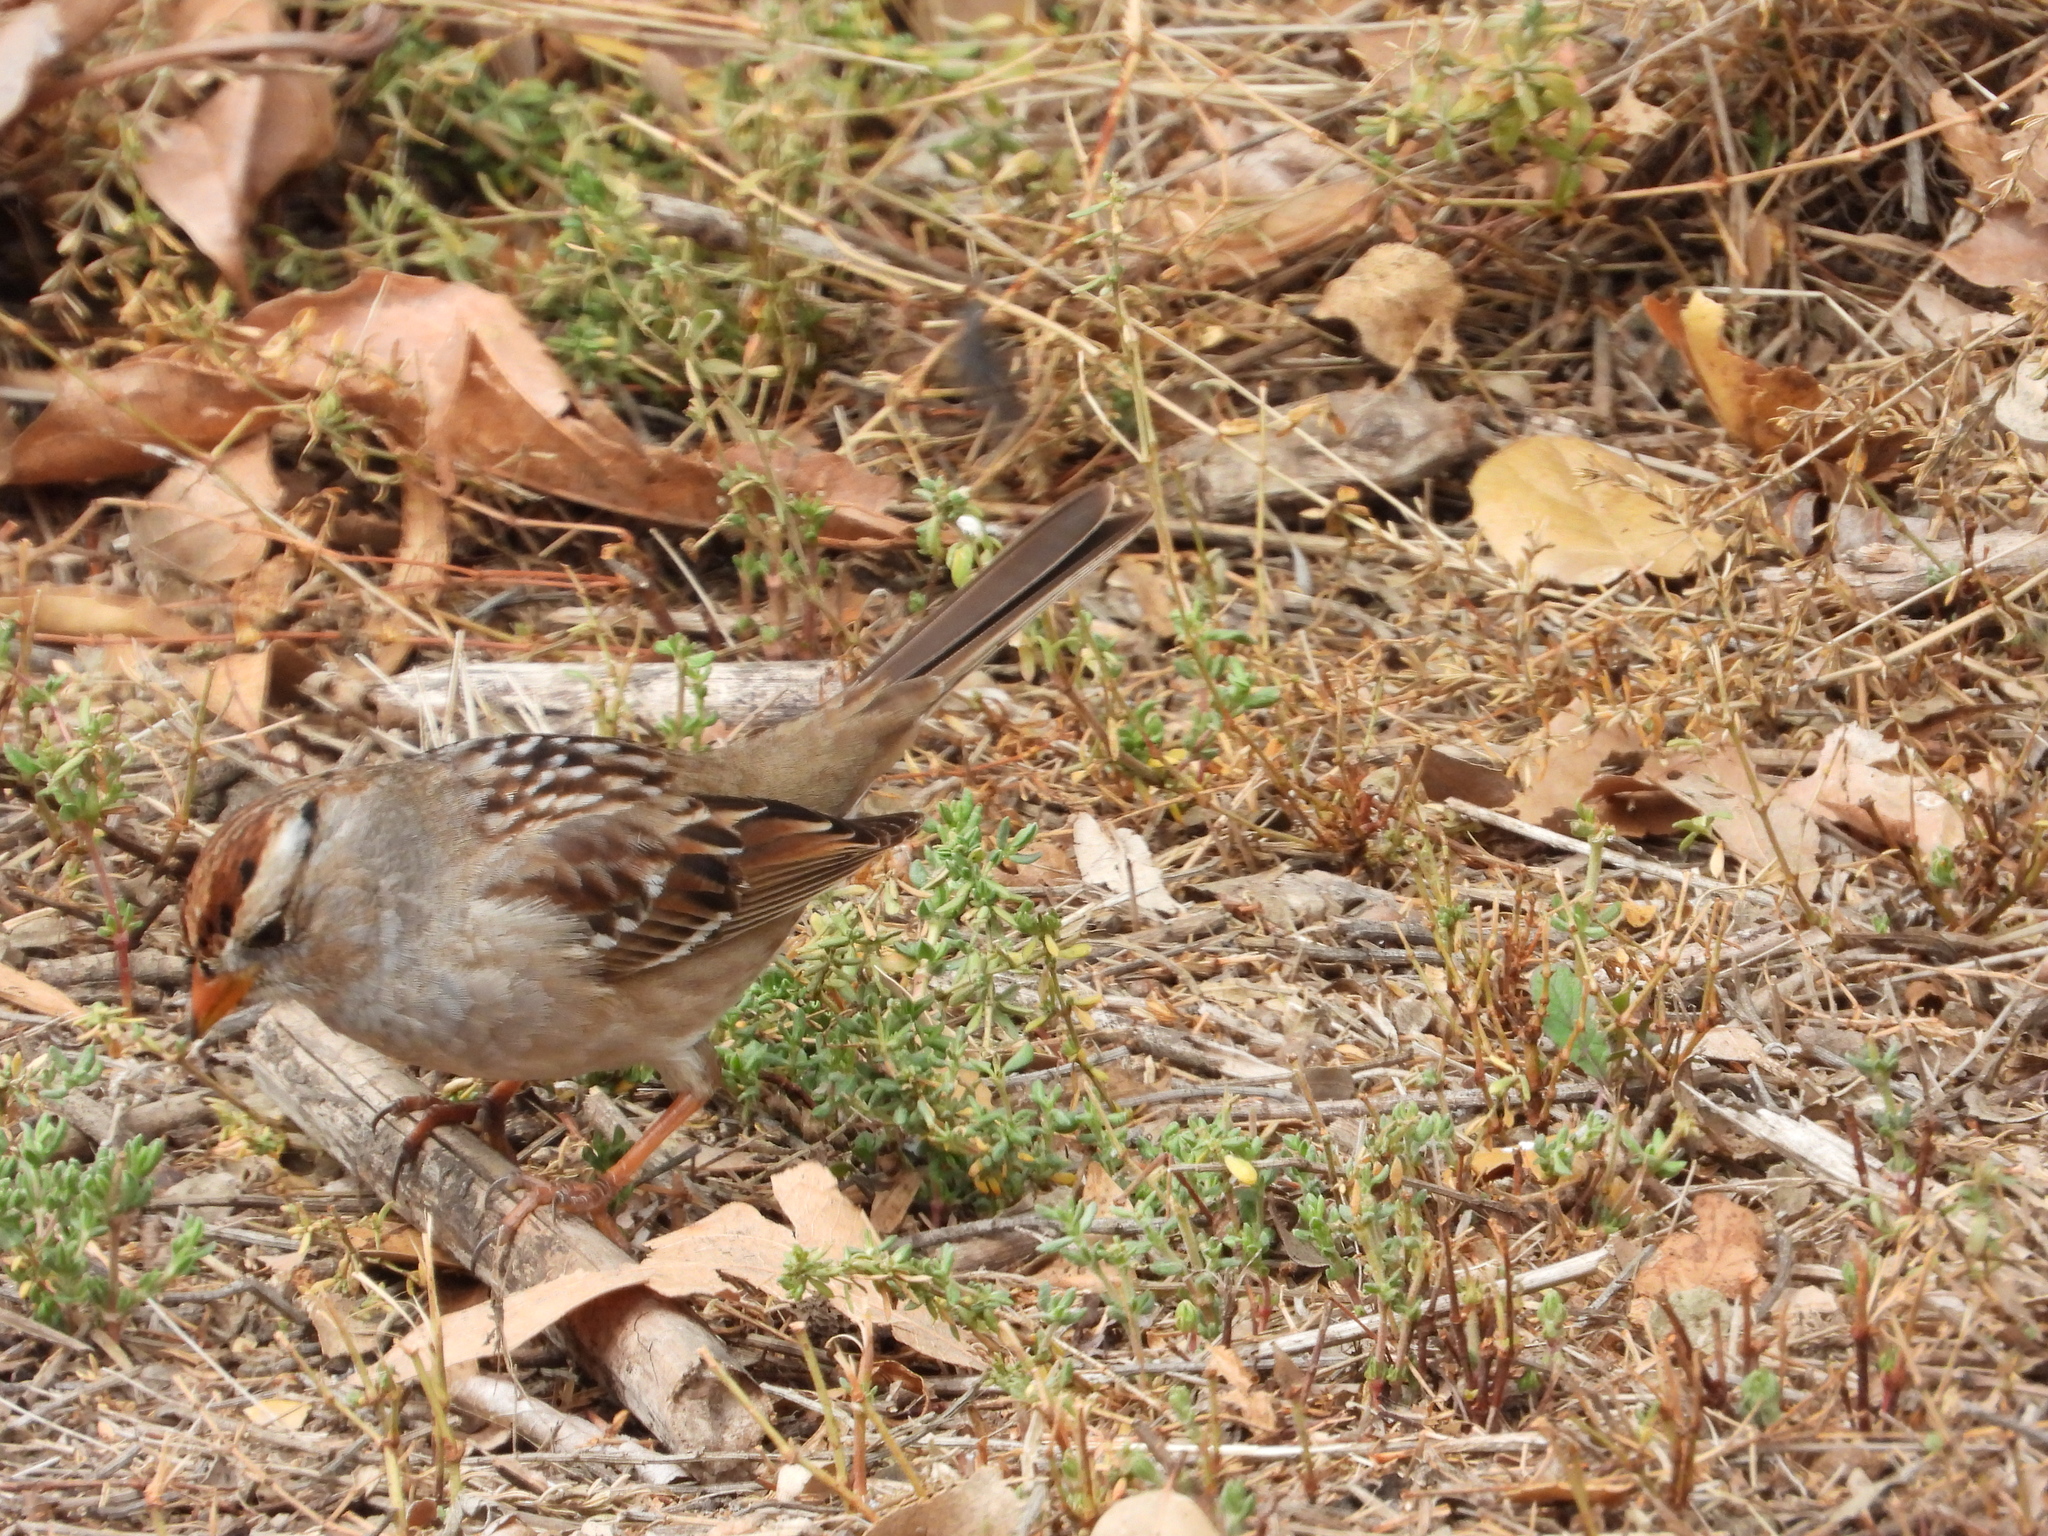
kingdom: Animalia
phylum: Chordata
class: Aves
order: Passeriformes
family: Passerellidae
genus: Zonotrichia
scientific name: Zonotrichia leucophrys
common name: White-crowned sparrow
